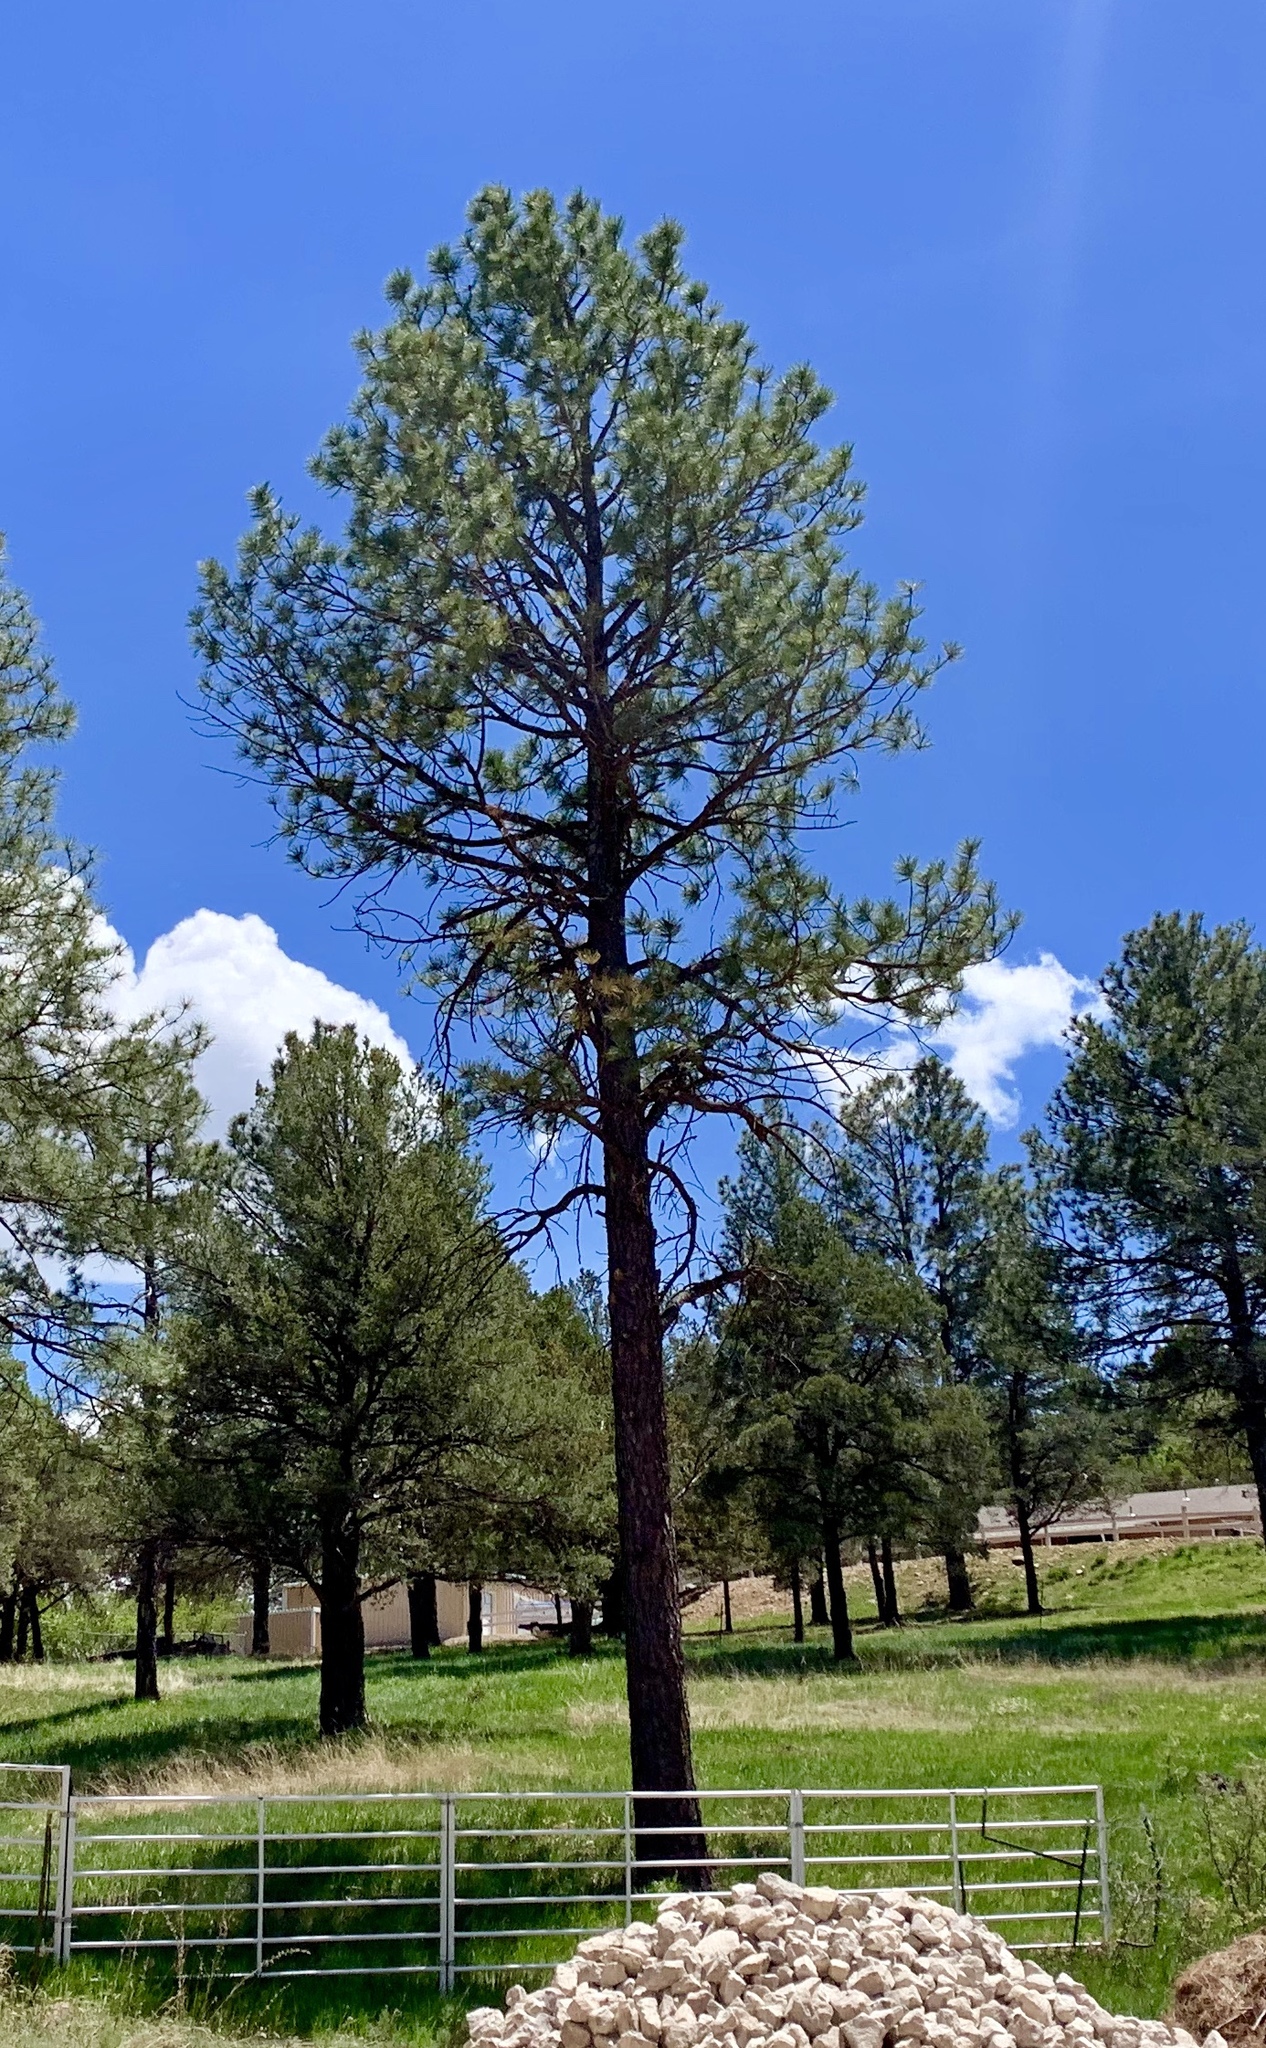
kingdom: Plantae
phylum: Tracheophyta
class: Pinopsida
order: Pinales
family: Pinaceae
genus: Pinus
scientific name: Pinus ponderosa
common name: Western yellow-pine
